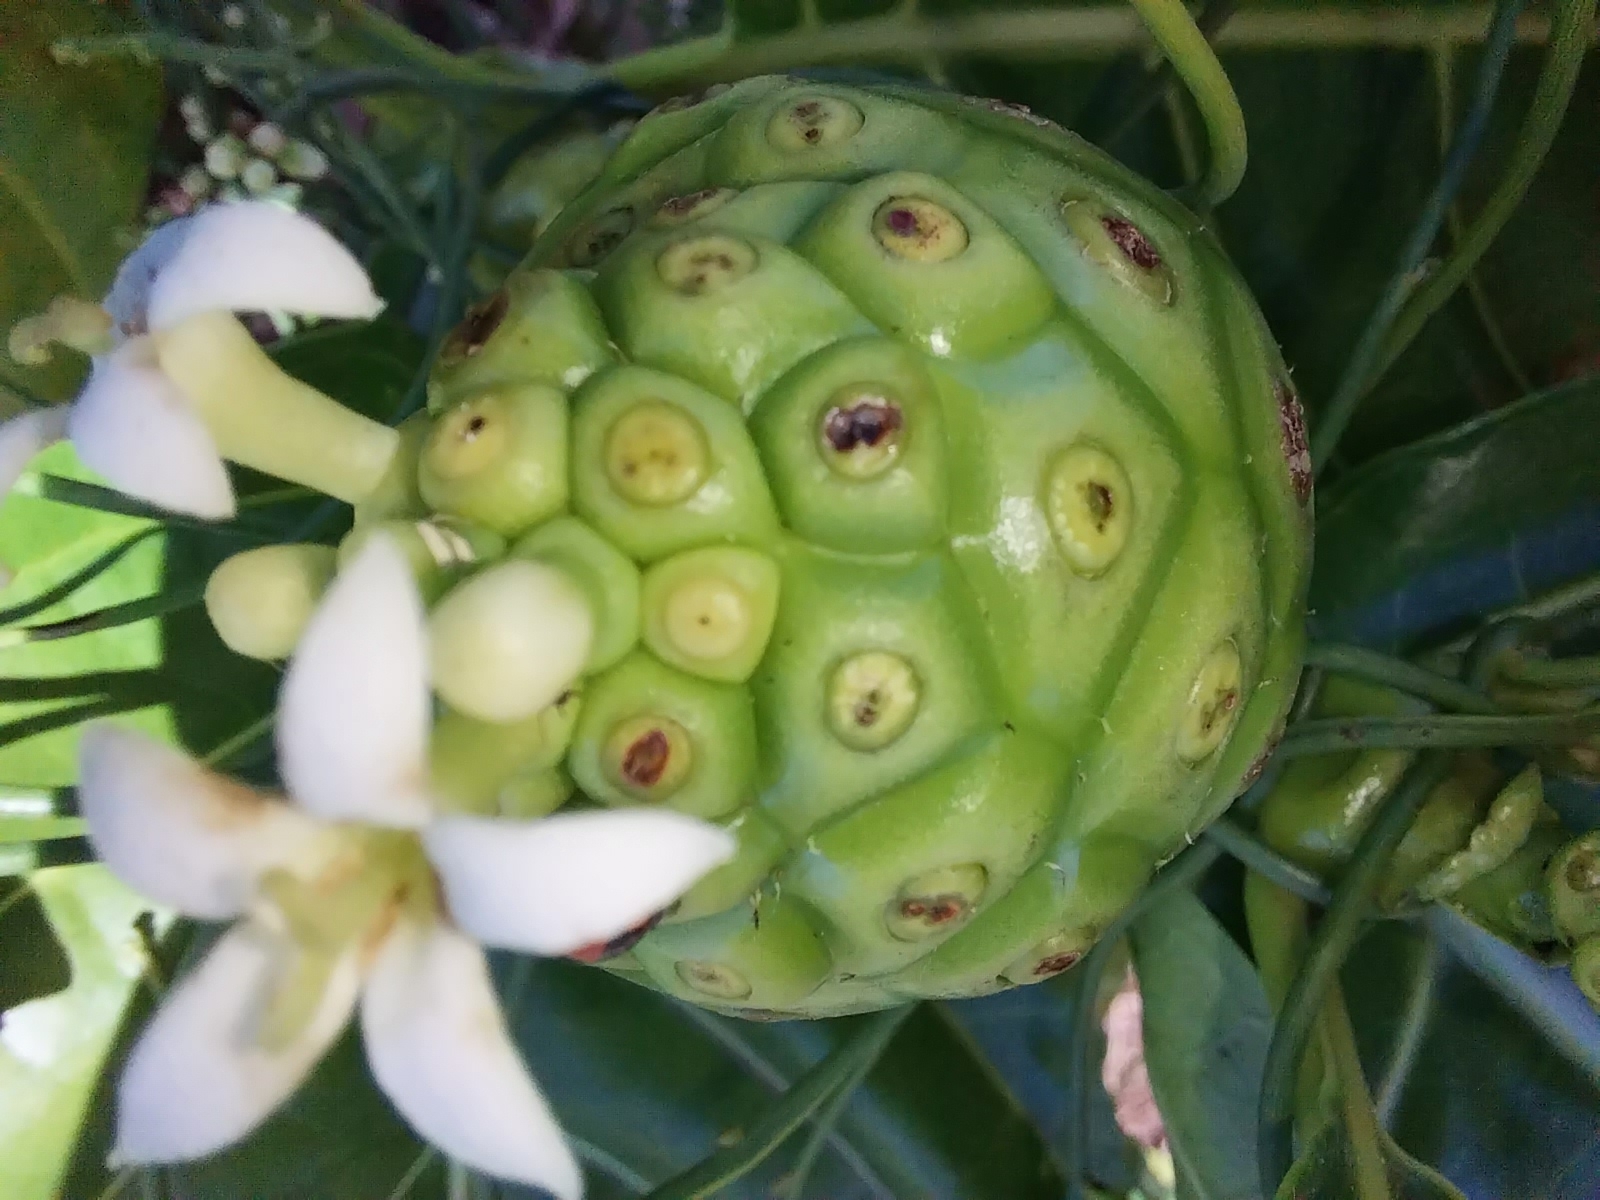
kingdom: Plantae
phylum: Tracheophyta
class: Magnoliopsida
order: Gentianales
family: Rubiaceae
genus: Morinda
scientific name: Morinda citrifolia
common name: Indian-mulberry
